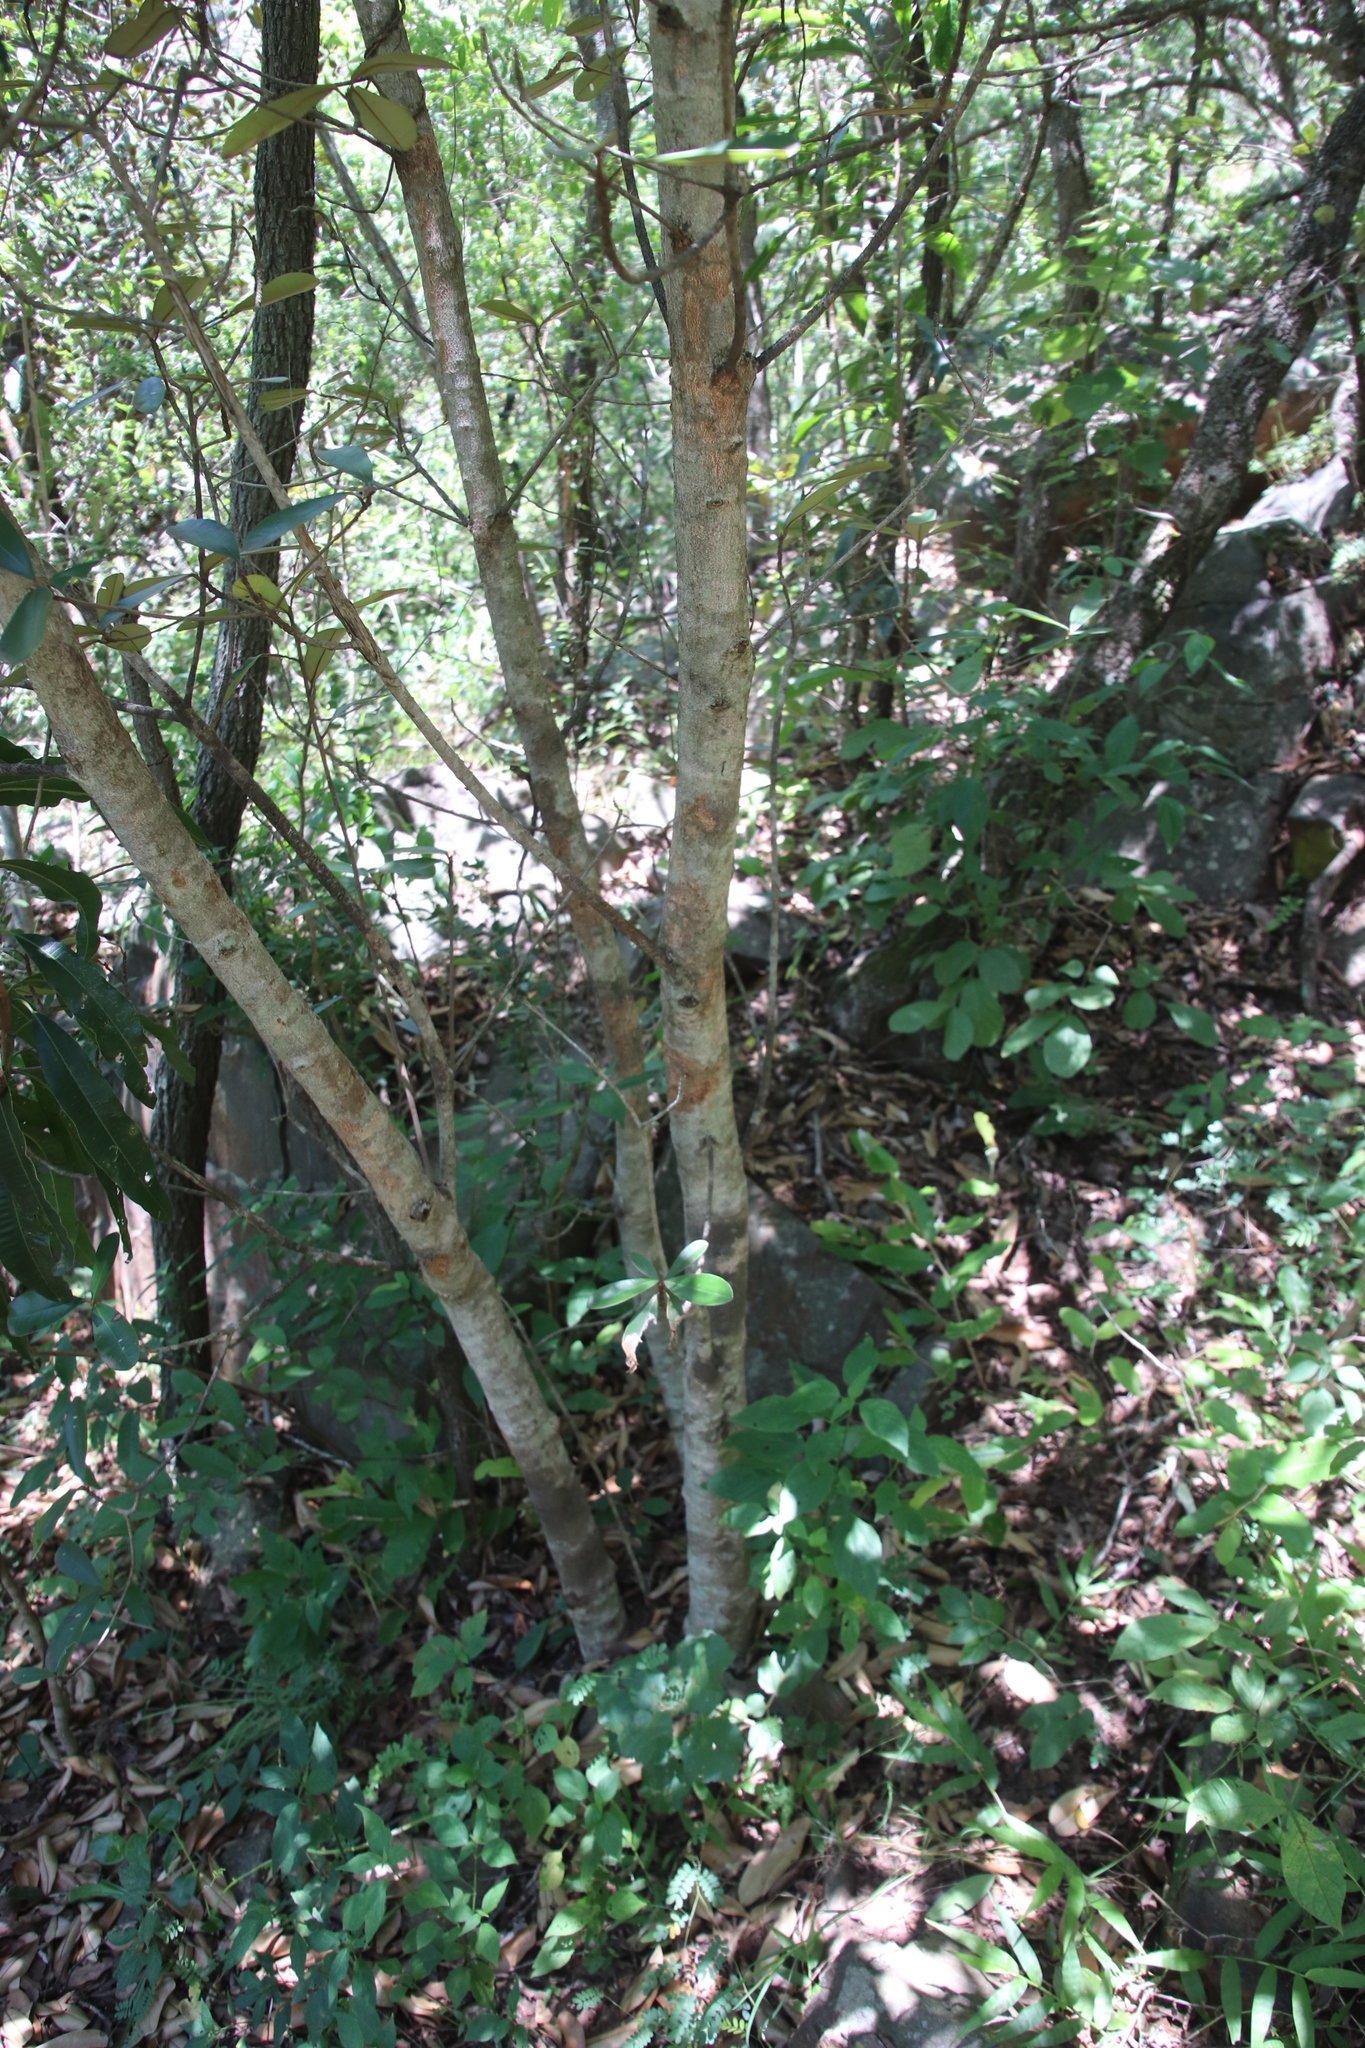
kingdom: Plantae
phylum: Tracheophyta
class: Magnoliopsida
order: Ericales
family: Sapotaceae
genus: Englerophytum
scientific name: Englerophytum magalismontanum
